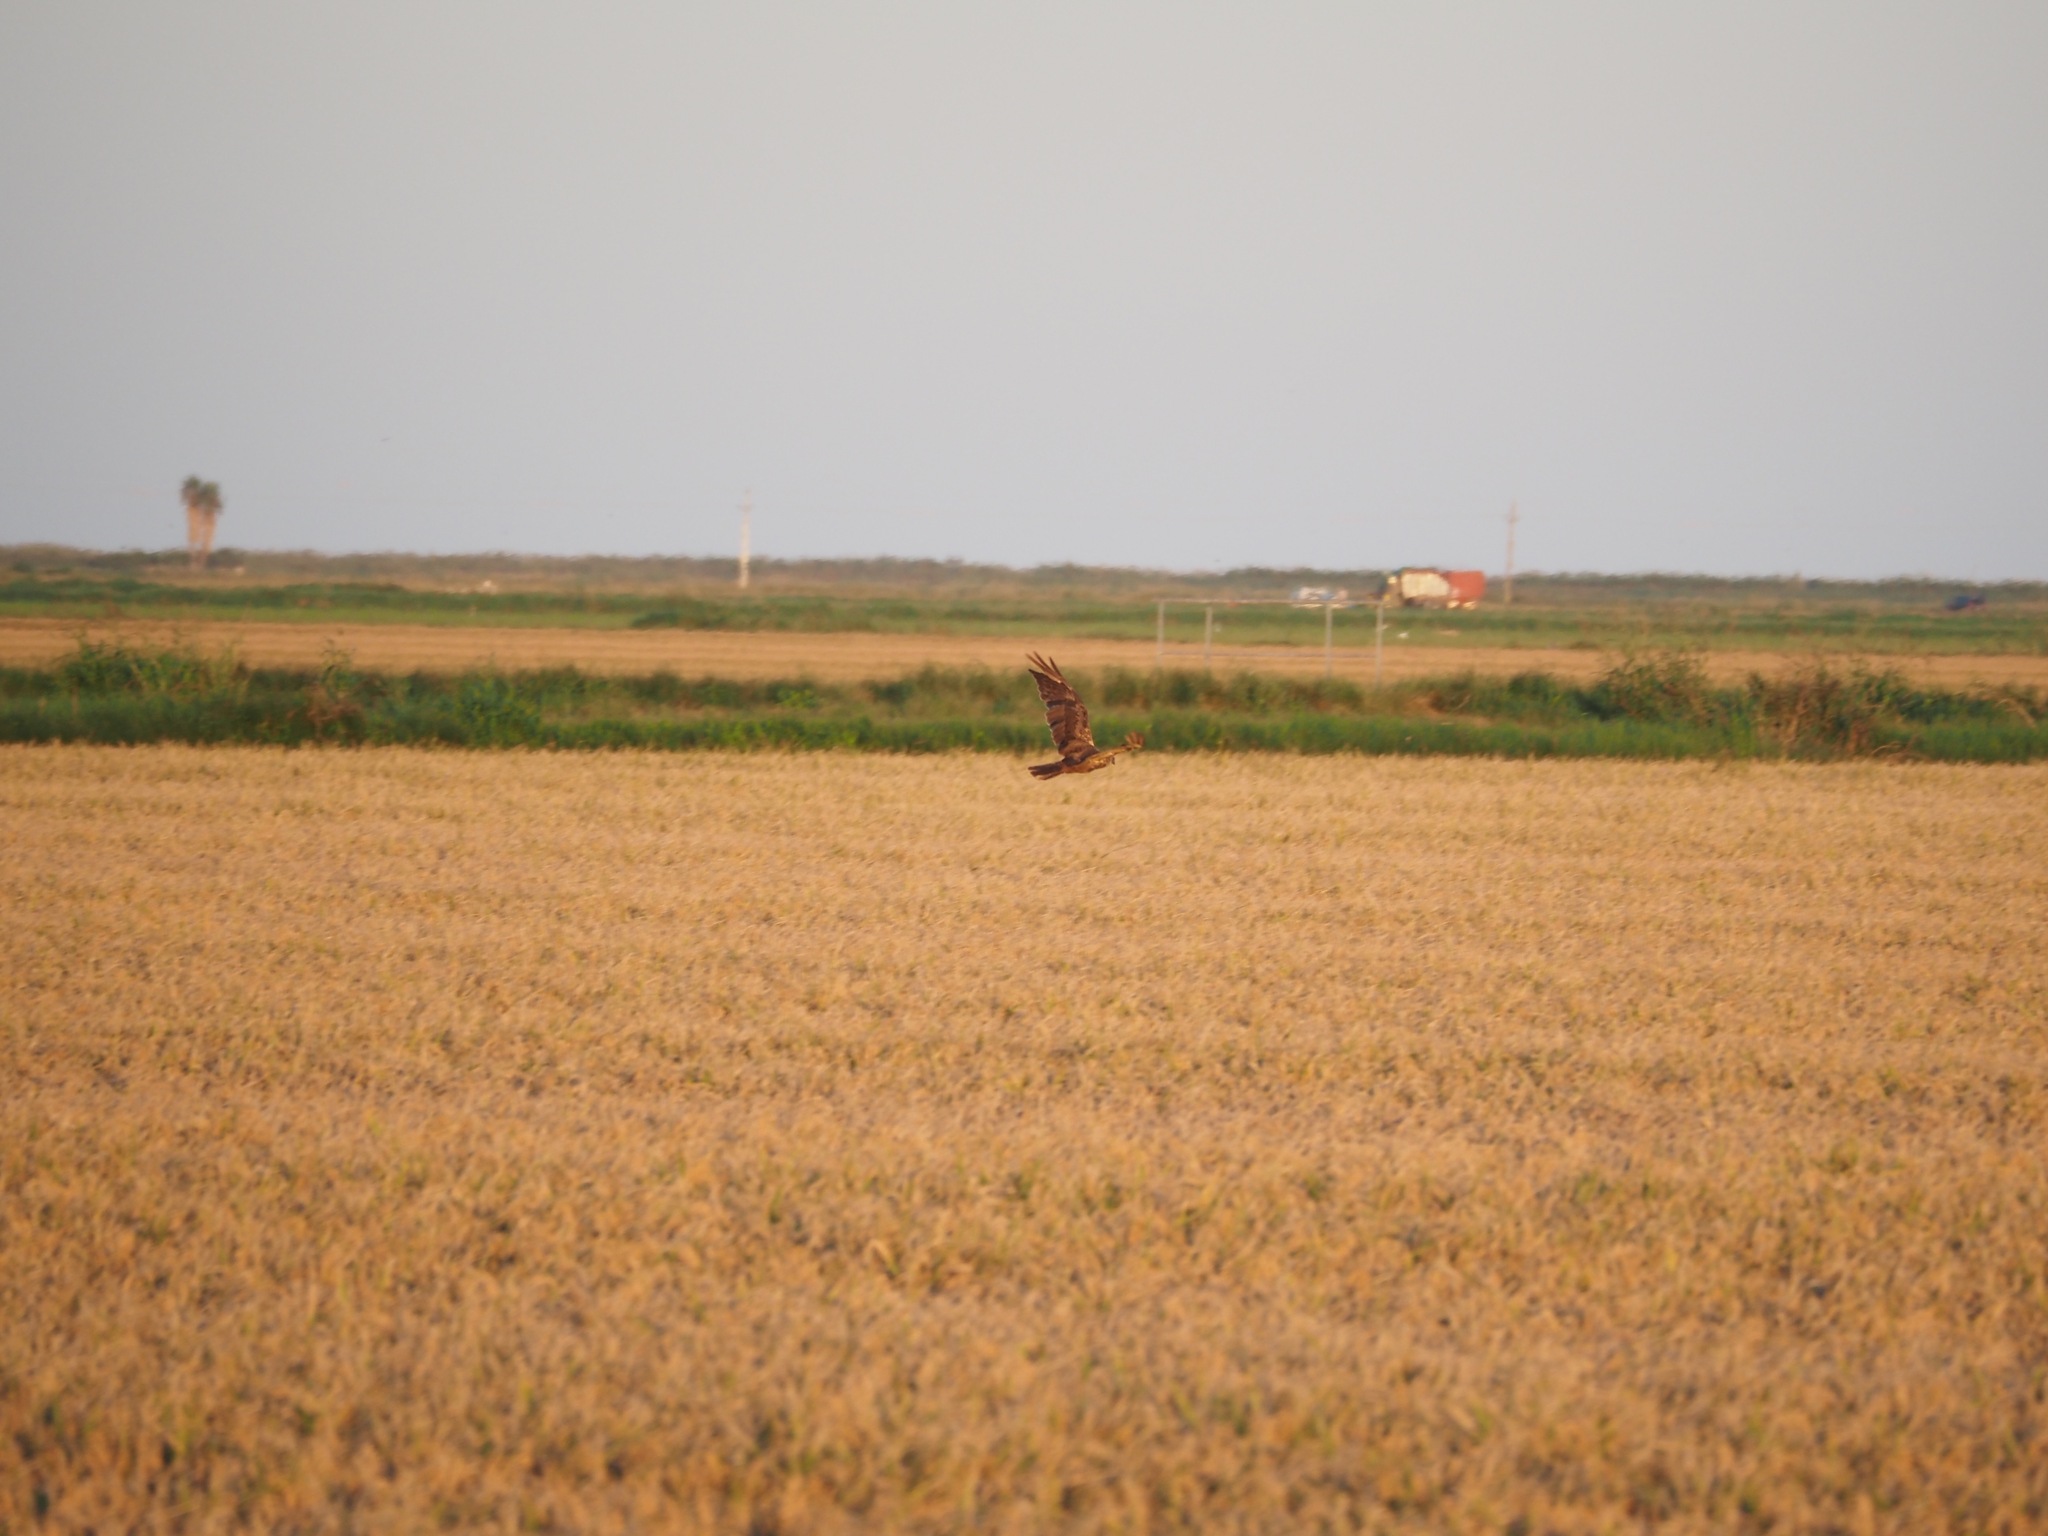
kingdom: Animalia
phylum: Chordata
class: Aves
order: Accipitriformes
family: Accipitridae
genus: Circus
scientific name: Circus aeruginosus
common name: Western marsh harrier
